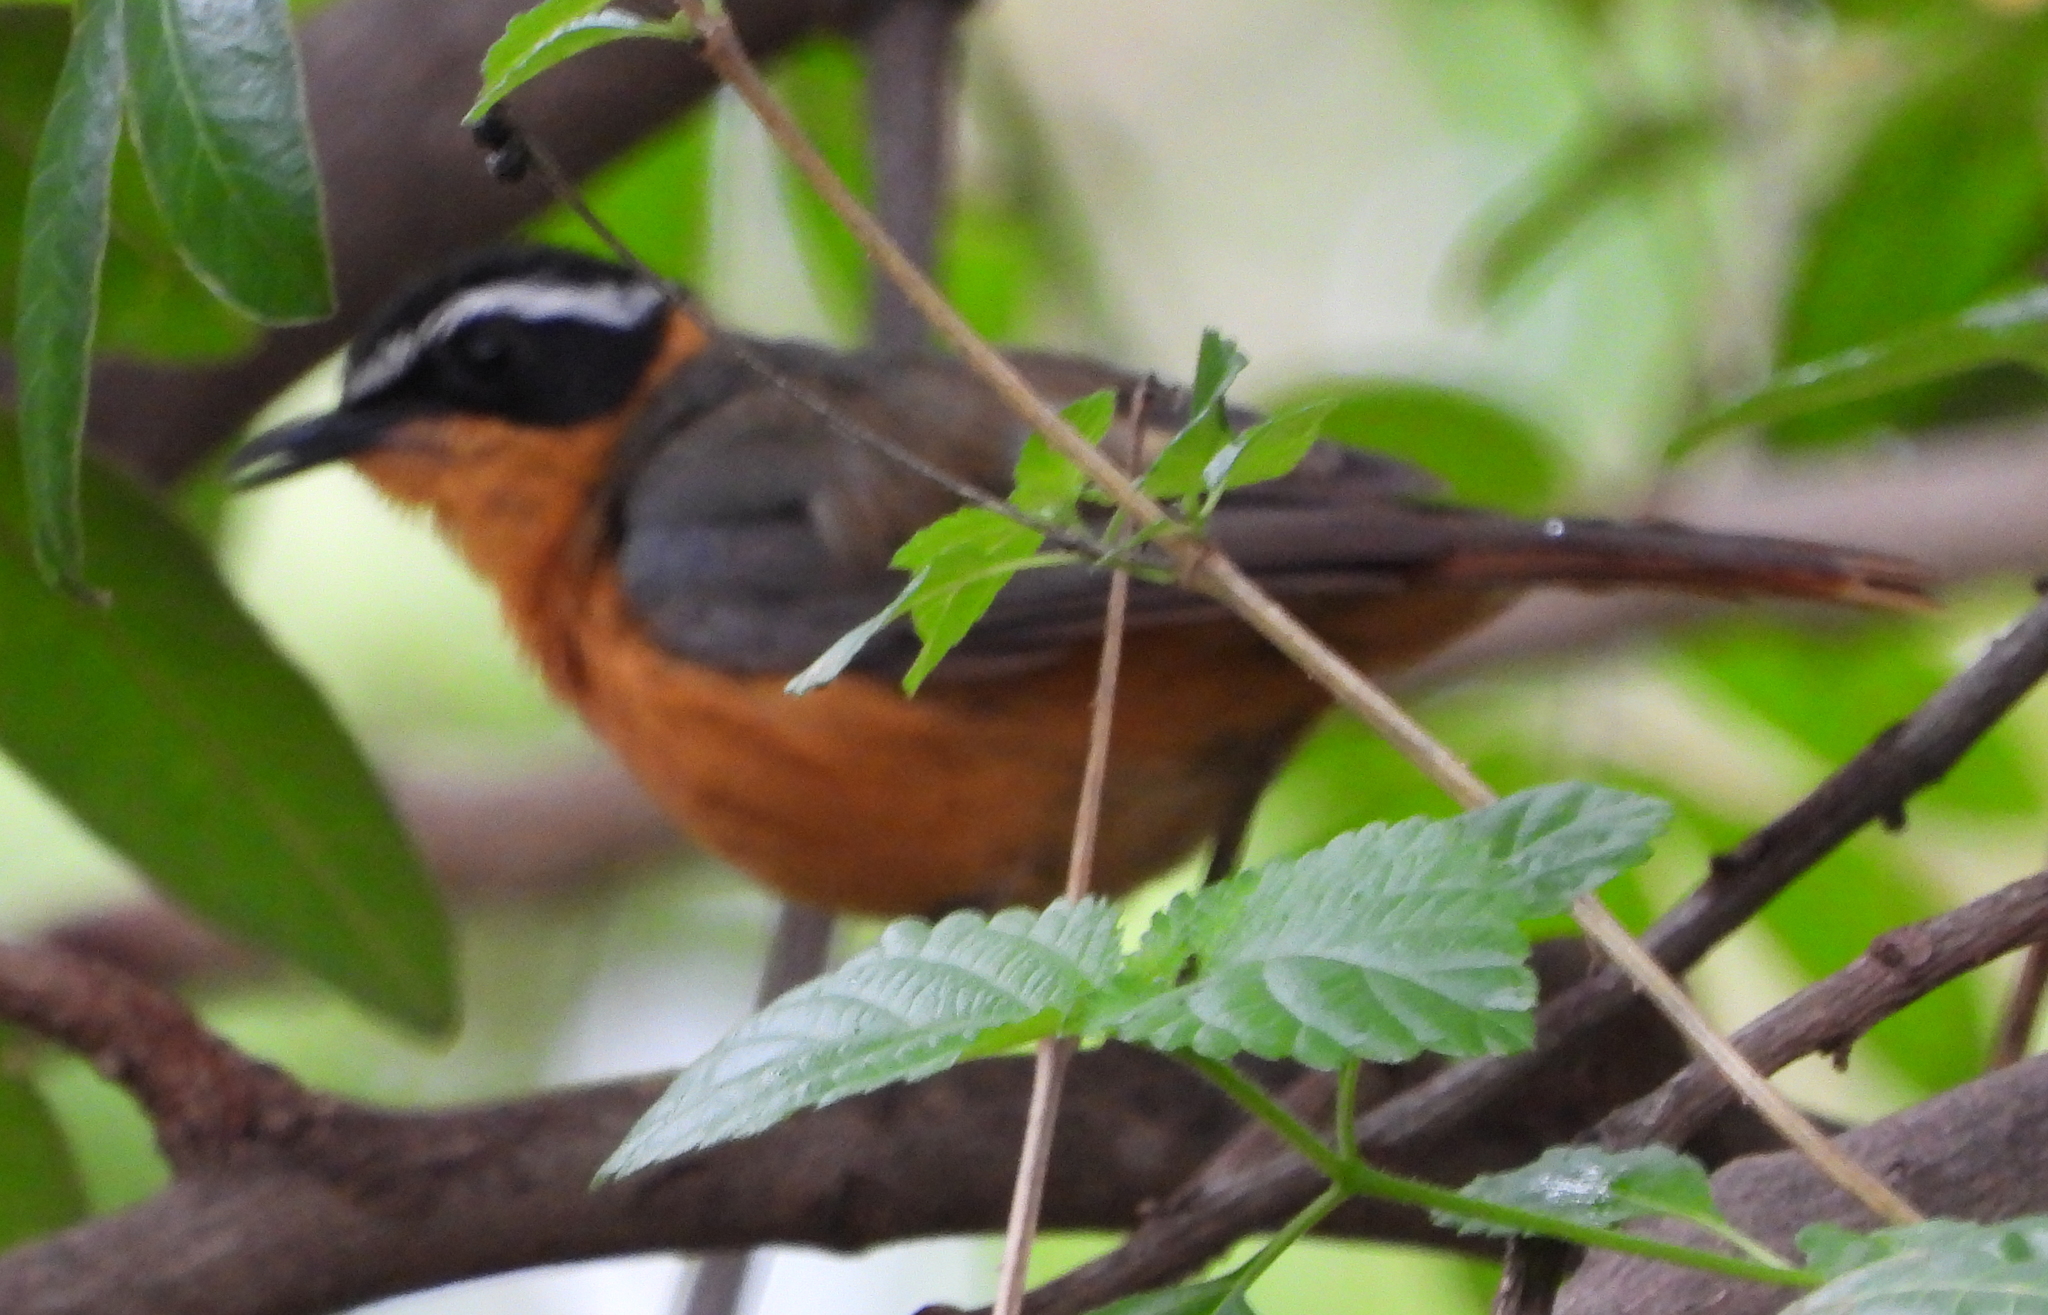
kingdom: Animalia
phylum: Chordata
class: Aves
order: Passeriformes
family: Muscicapidae
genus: Cossypha
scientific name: Cossypha heuglini
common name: White-browed robin-chat
